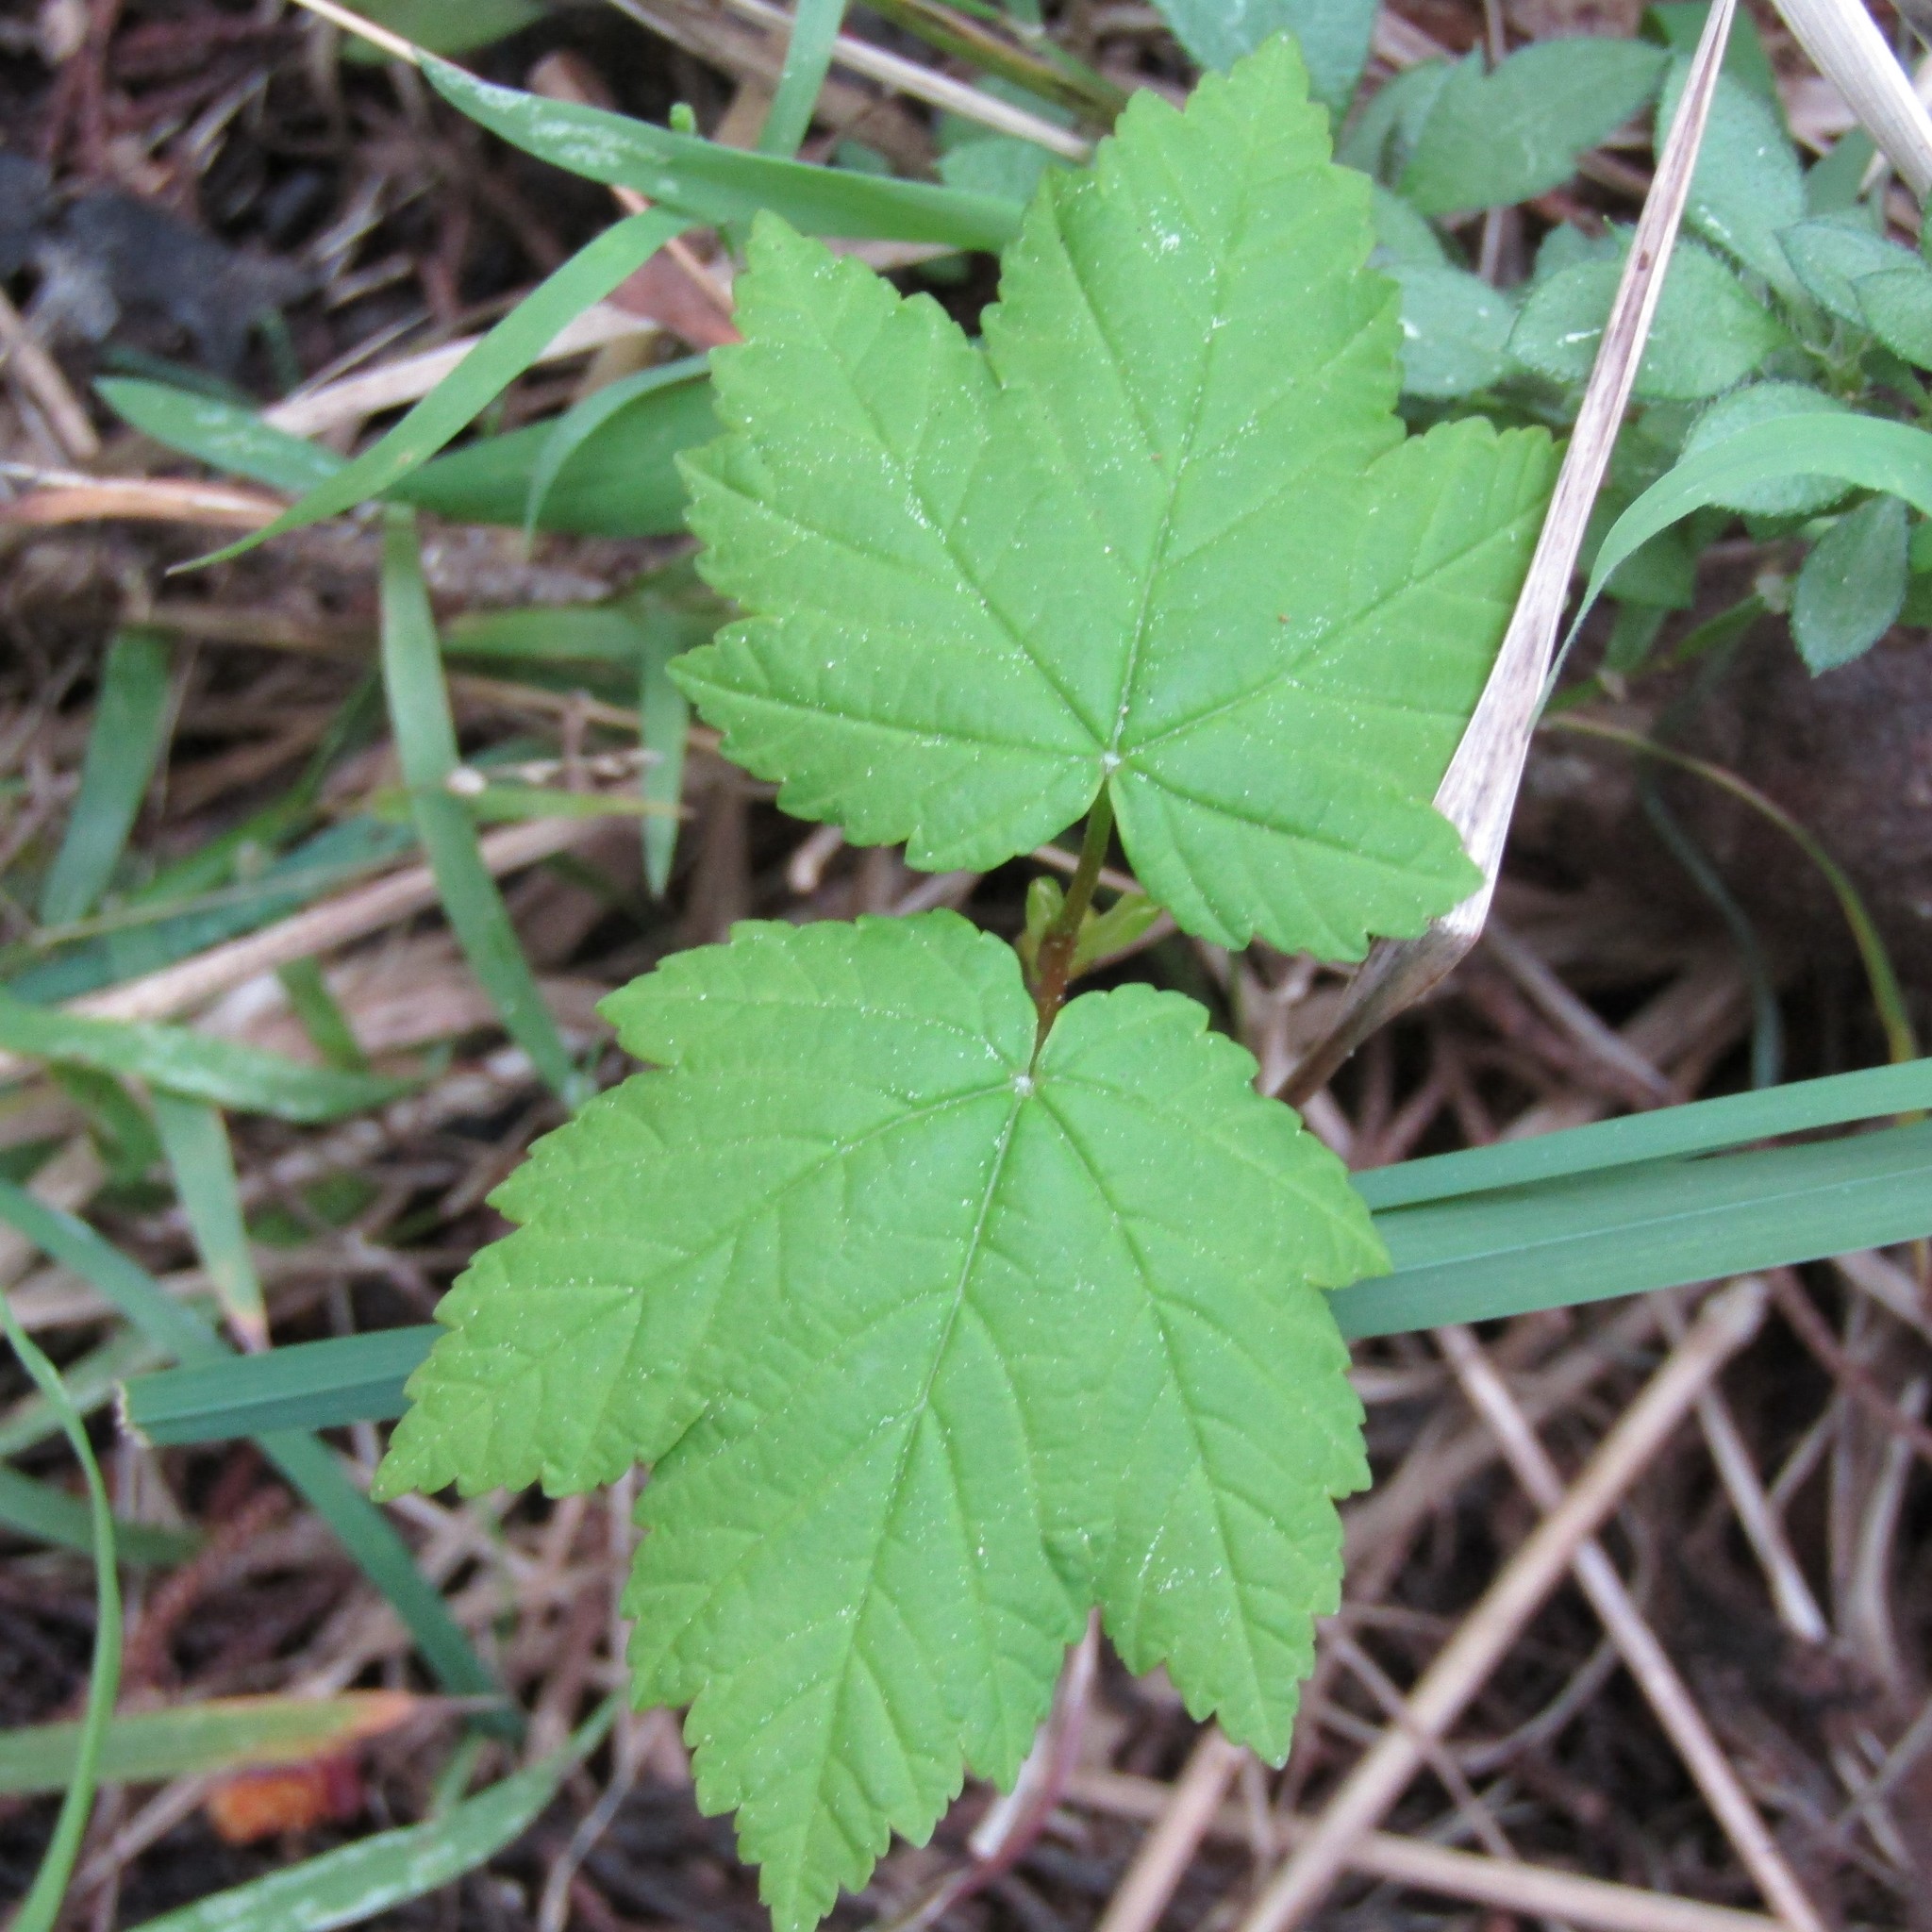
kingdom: Plantae
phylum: Tracheophyta
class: Magnoliopsida
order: Sapindales
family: Sapindaceae
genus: Acer
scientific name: Acer pseudoplatanus
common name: Sycamore
